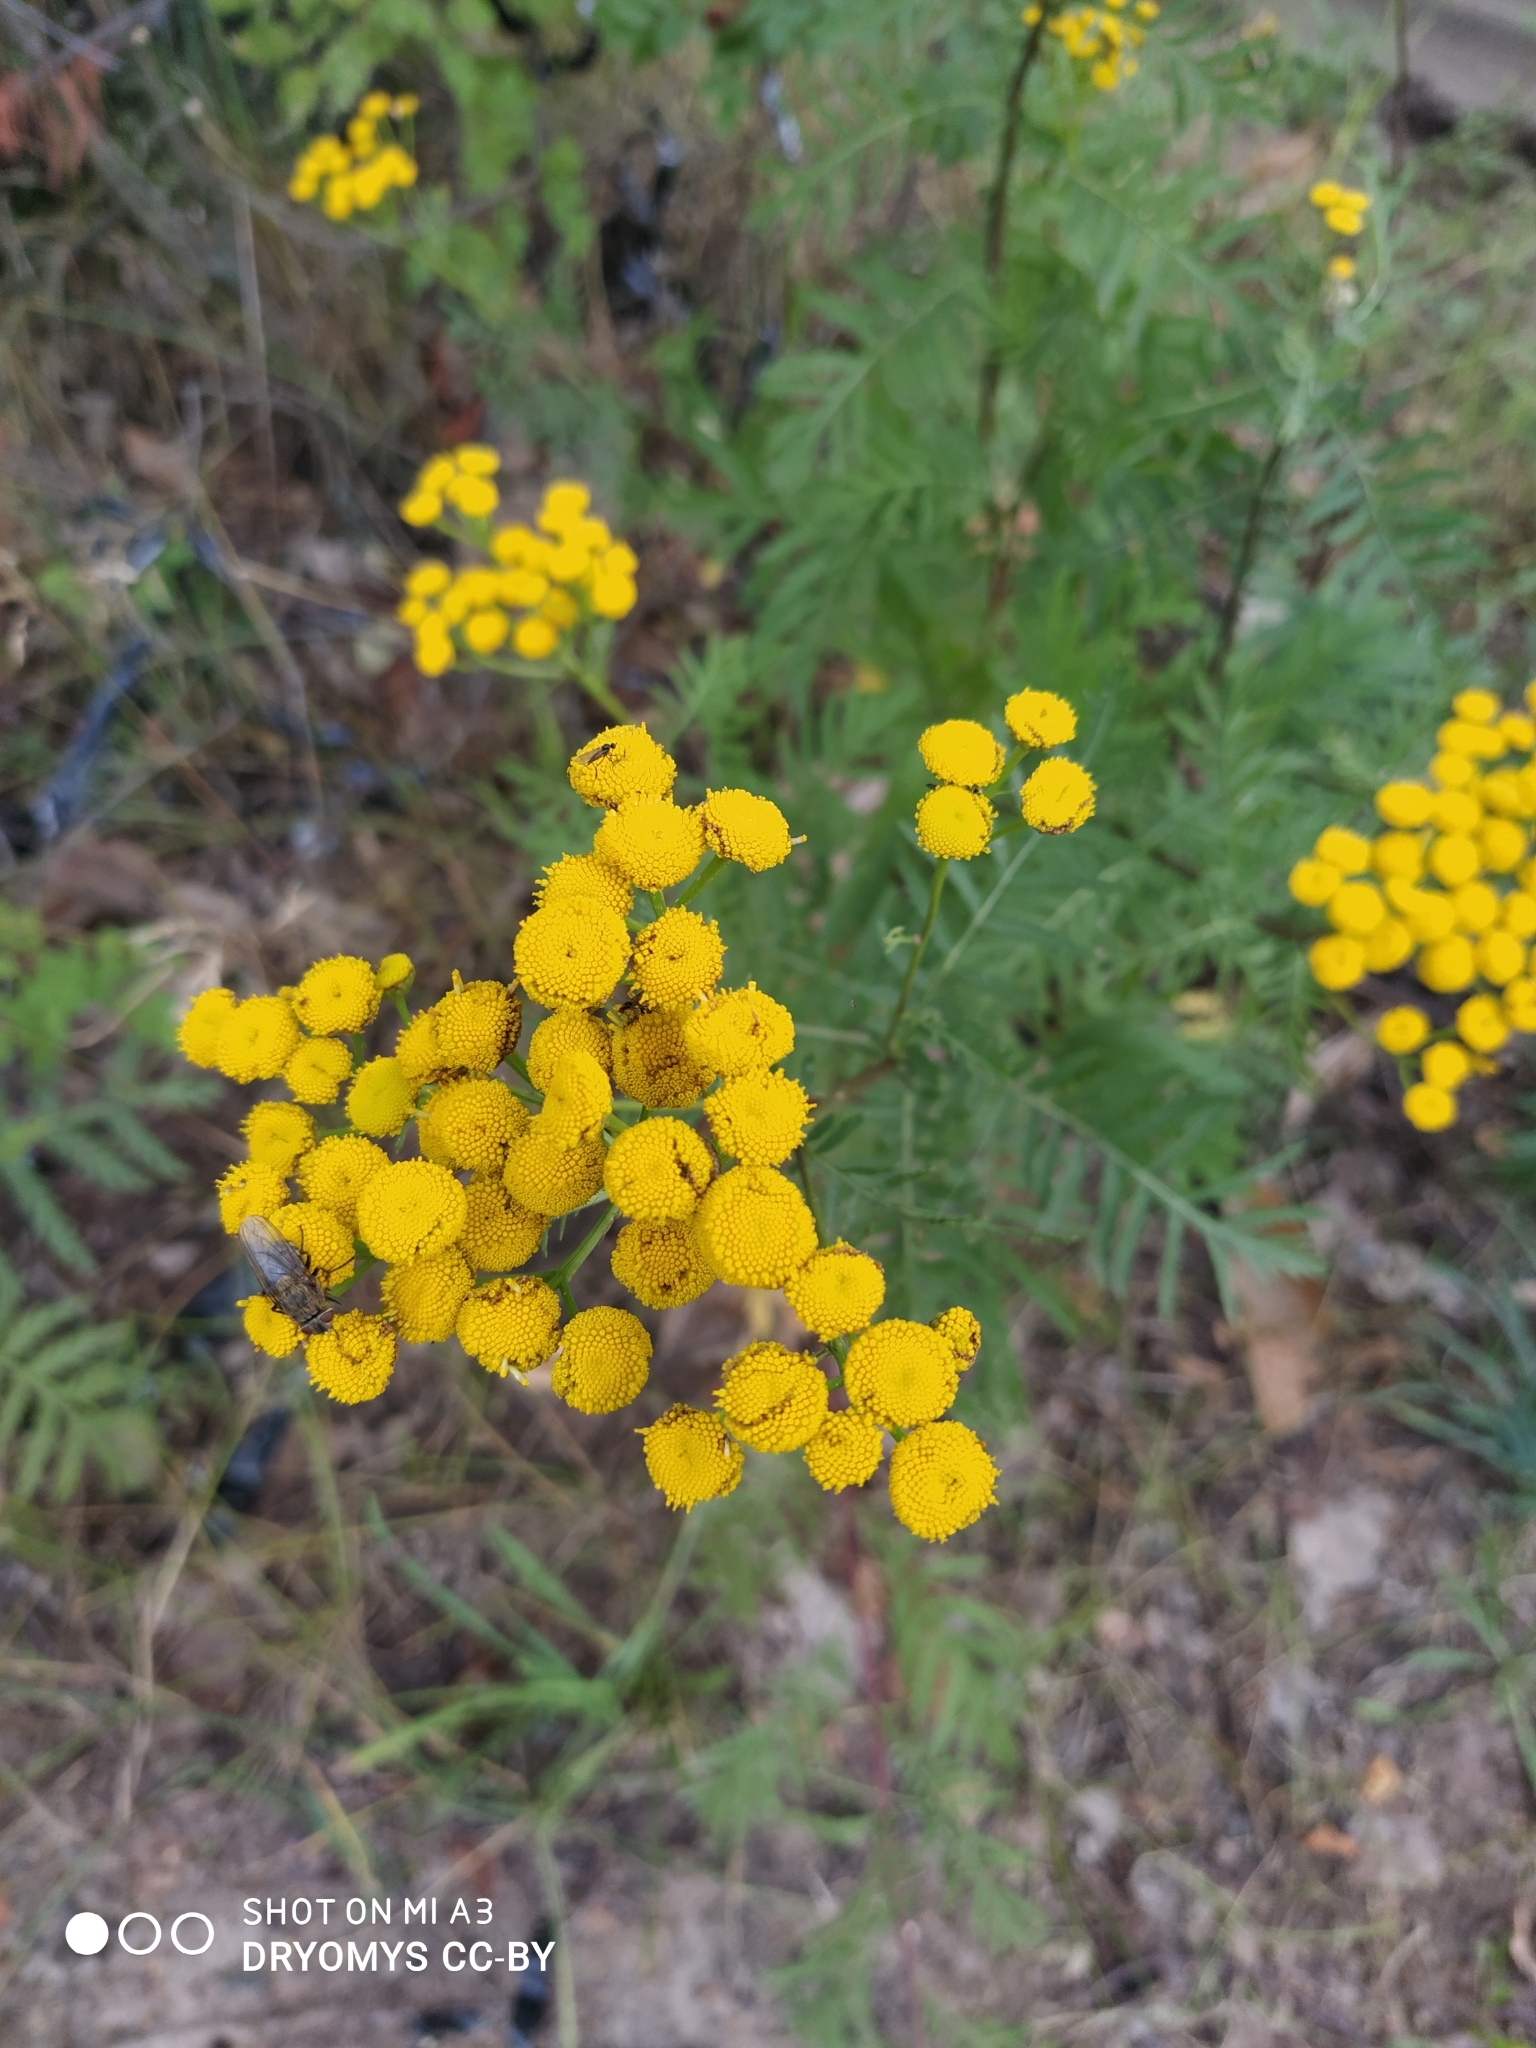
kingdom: Plantae
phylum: Tracheophyta
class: Magnoliopsida
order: Asterales
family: Asteraceae
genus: Tanacetum
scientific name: Tanacetum vulgare
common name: Common tansy
